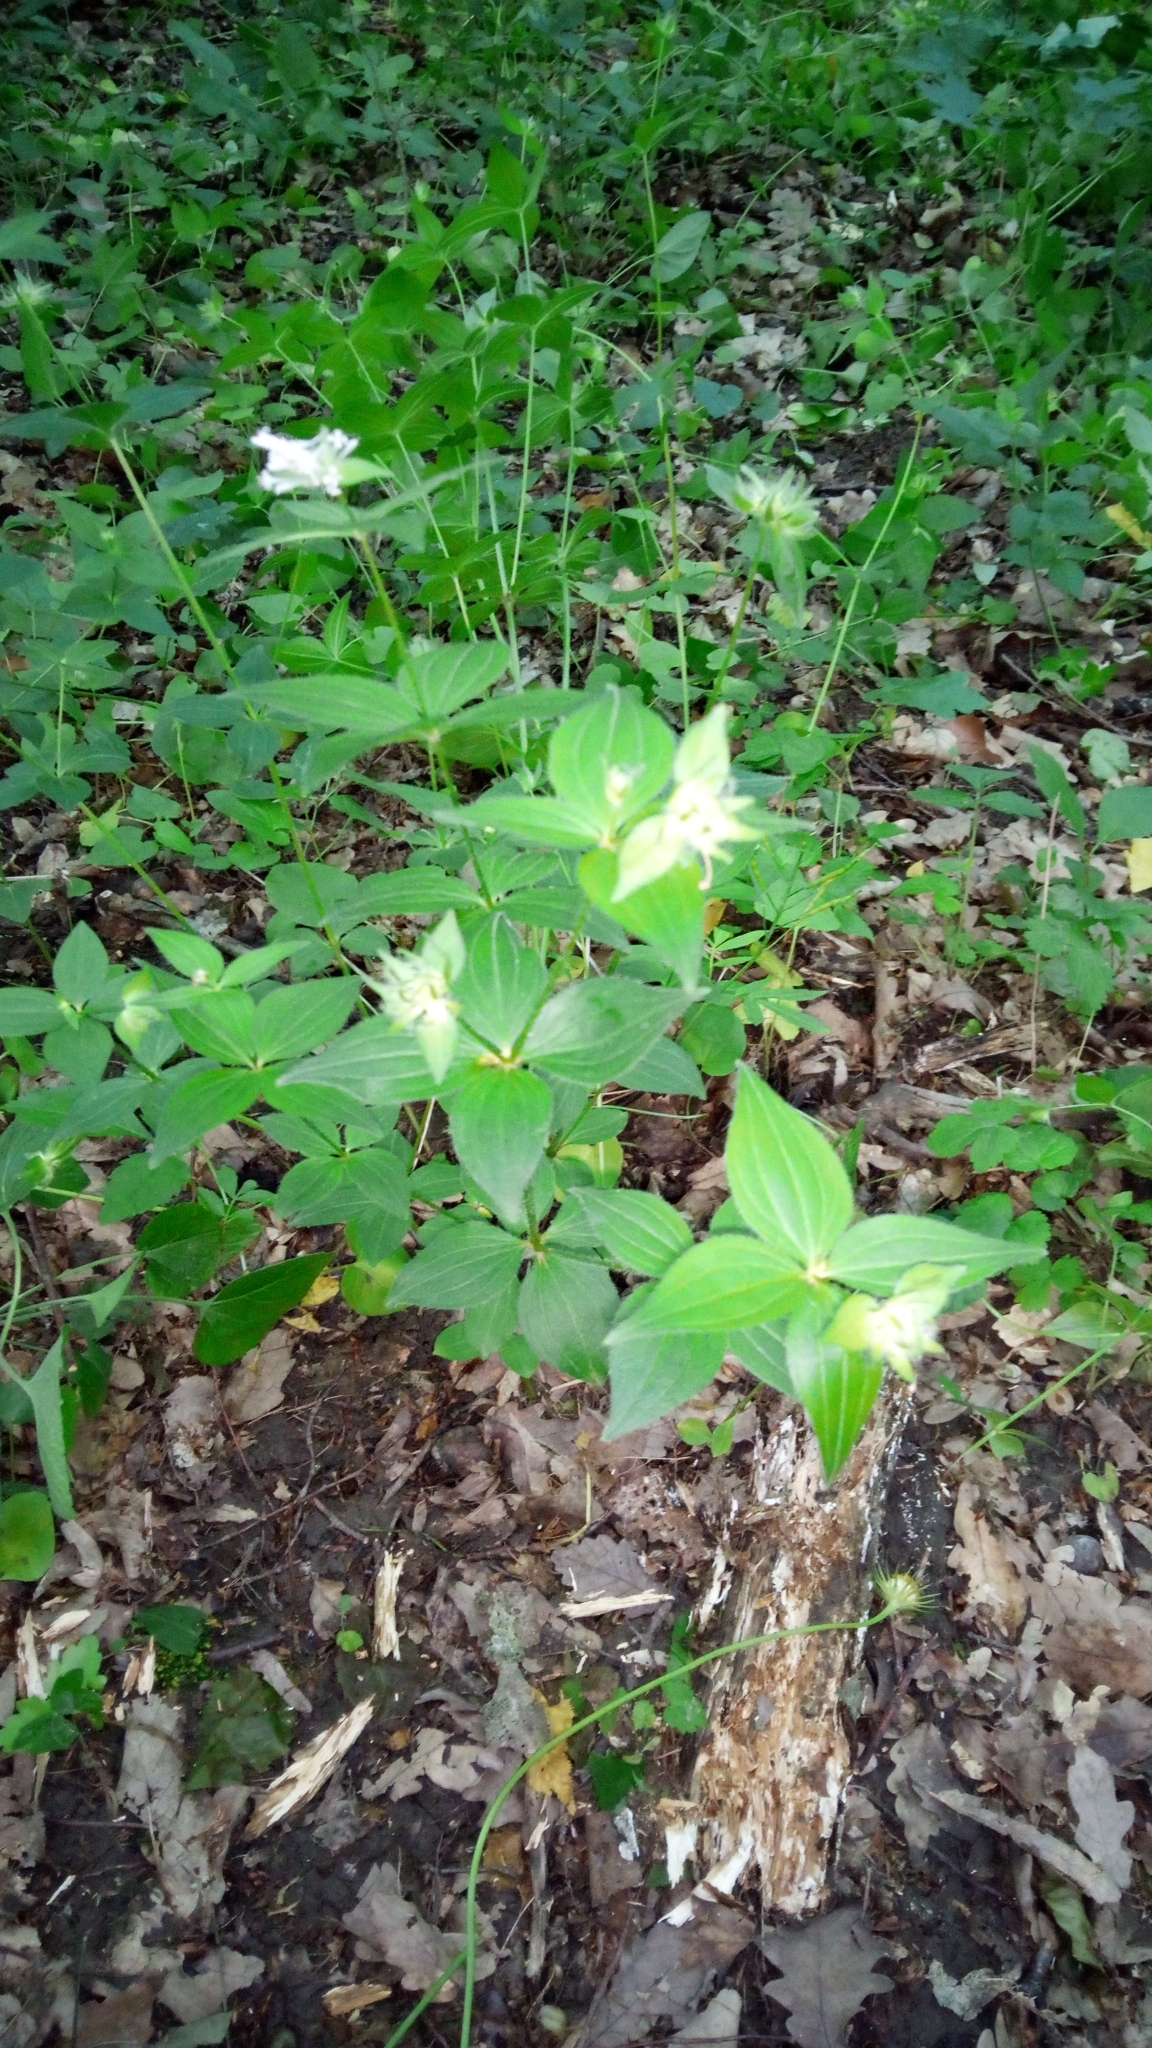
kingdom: Plantae
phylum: Tracheophyta
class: Magnoliopsida
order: Gentianales
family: Rubiaceae
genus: Asperula
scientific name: Asperula taurina
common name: Pink woodruff
